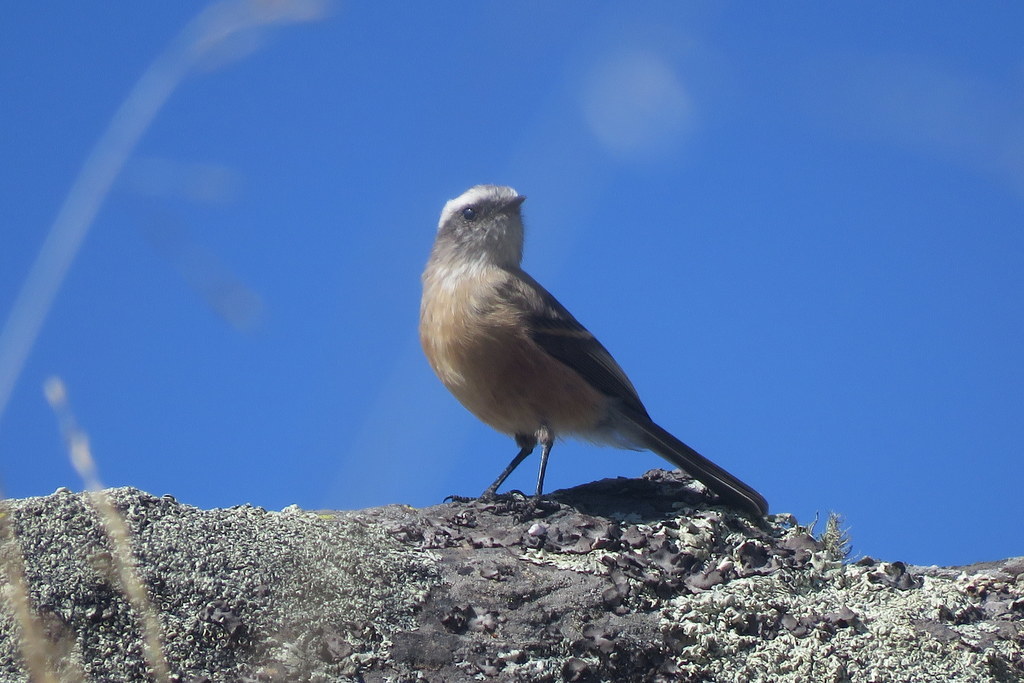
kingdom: Animalia
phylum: Chordata
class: Aves
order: Passeriformes
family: Tyrannidae
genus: Ochthoeca
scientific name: Ochthoeca oenanthoides
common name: D'orbigny's chat-tyrant
